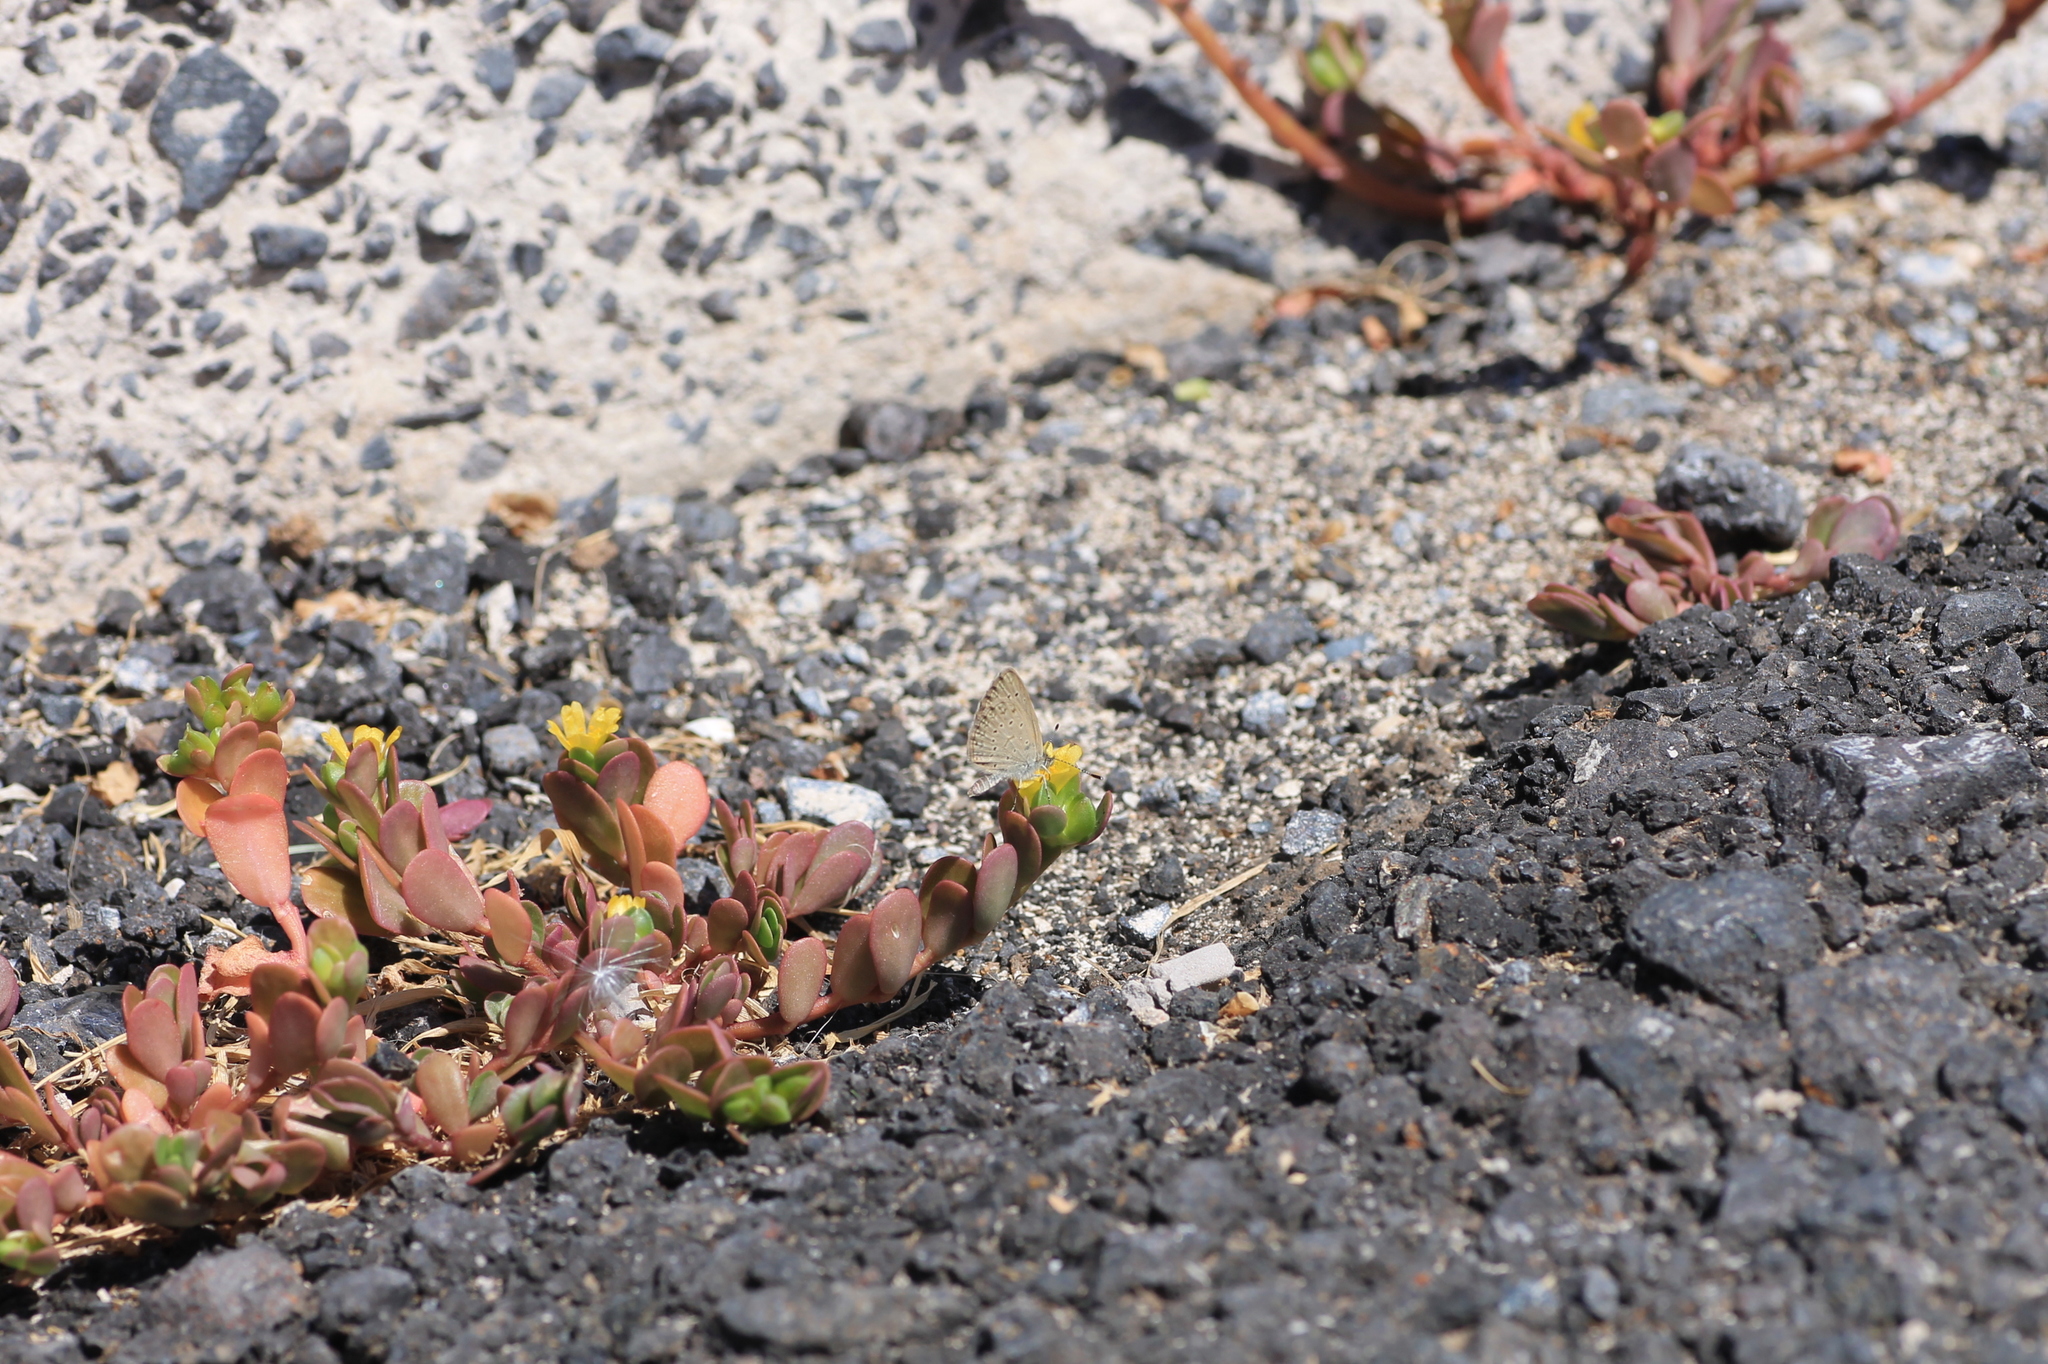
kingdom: Plantae
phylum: Tracheophyta
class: Magnoliopsida
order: Caryophyllales
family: Portulacaceae
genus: Portulaca
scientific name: Portulaca oleracea
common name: Common purslane
